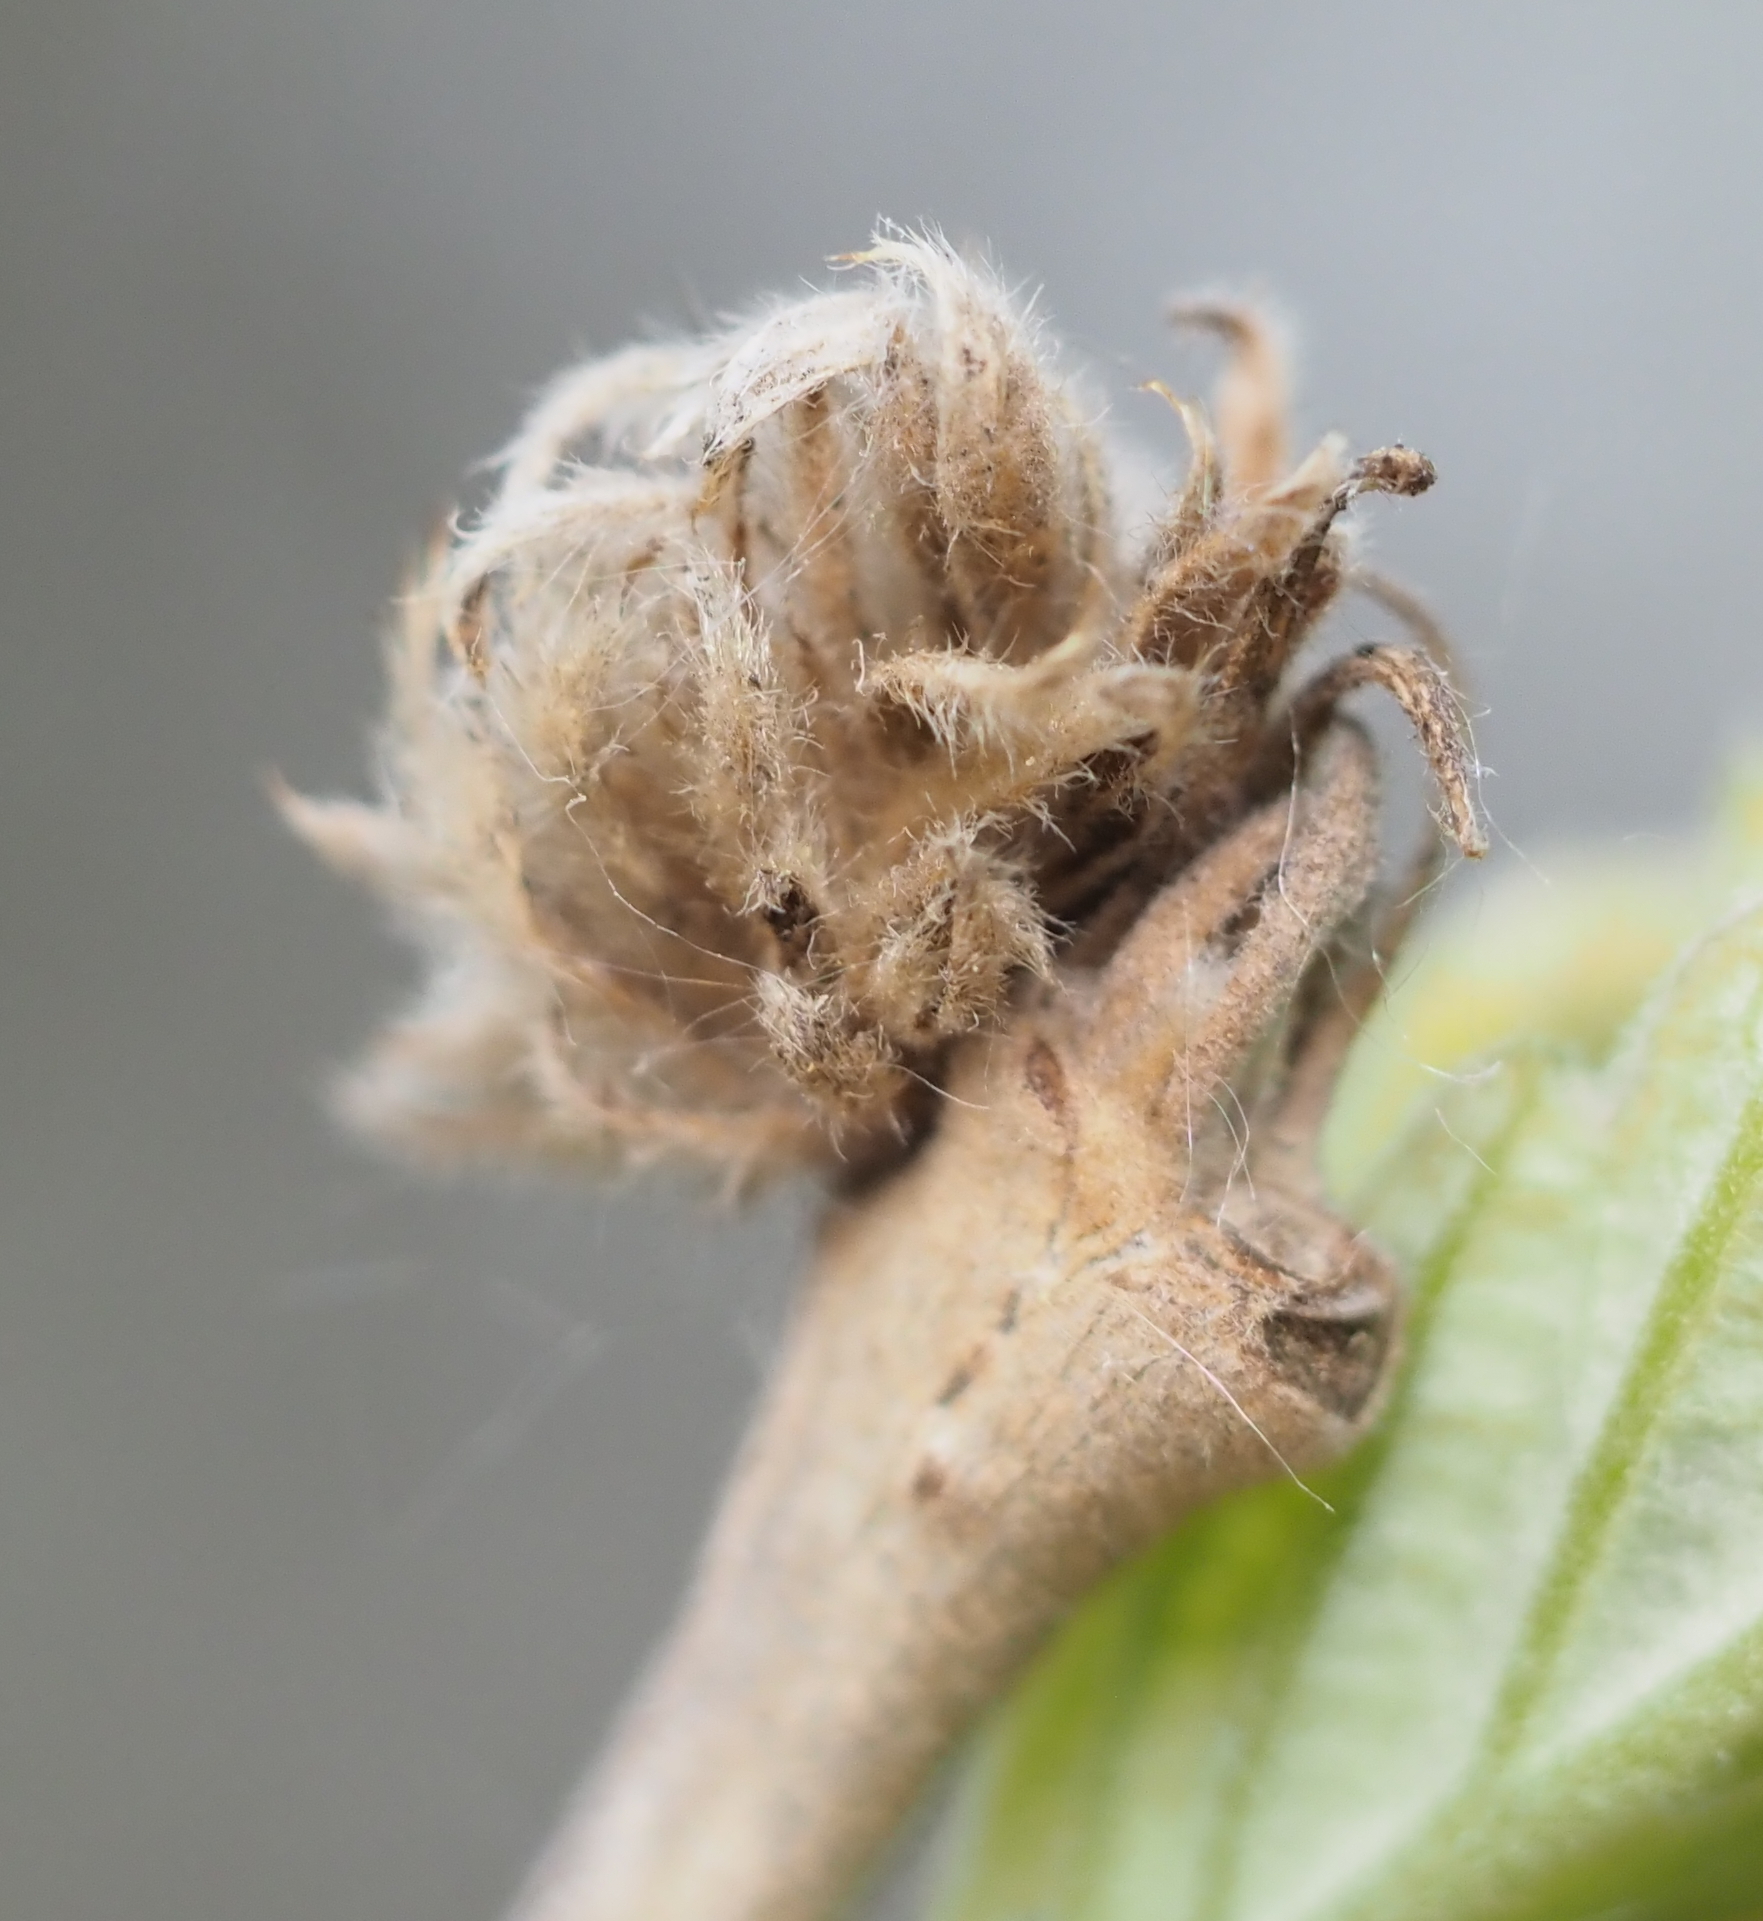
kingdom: Animalia
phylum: Arthropoda
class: Insecta
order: Hymenoptera
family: Cynipidae
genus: Andricus
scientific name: Andricus
